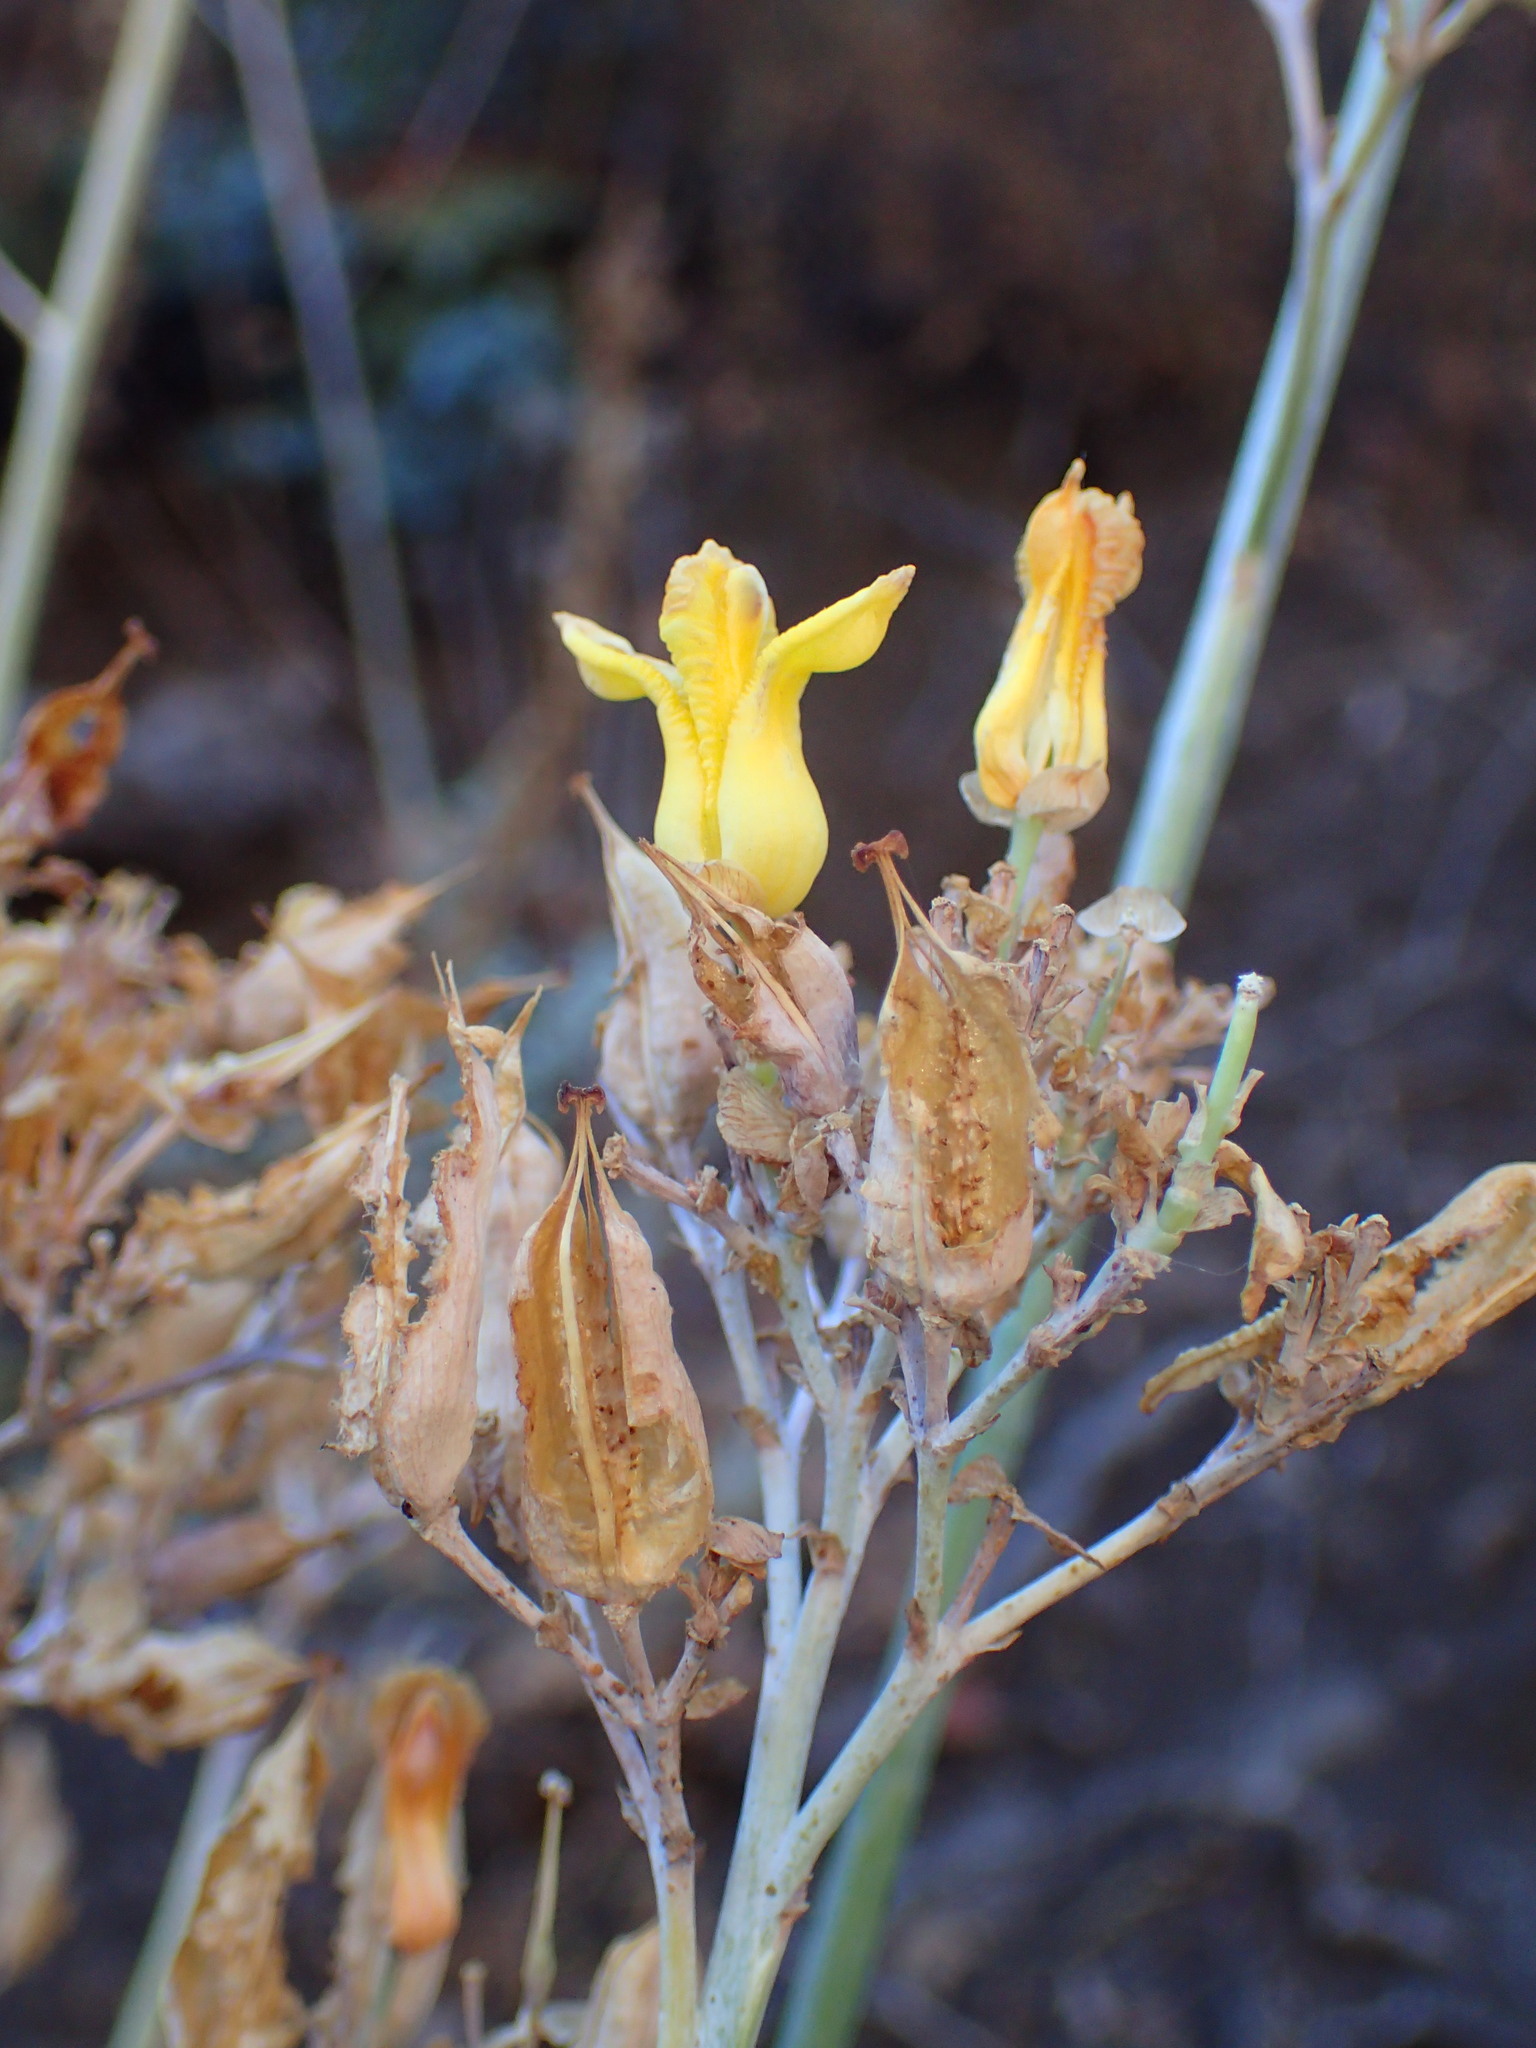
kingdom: Plantae
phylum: Tracheophyta
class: Magnoliopsida
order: Ranunculales
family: Papaveraceae
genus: Ehrendorferia
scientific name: Ehrendorferia chrysantha
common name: Golden eardrops
